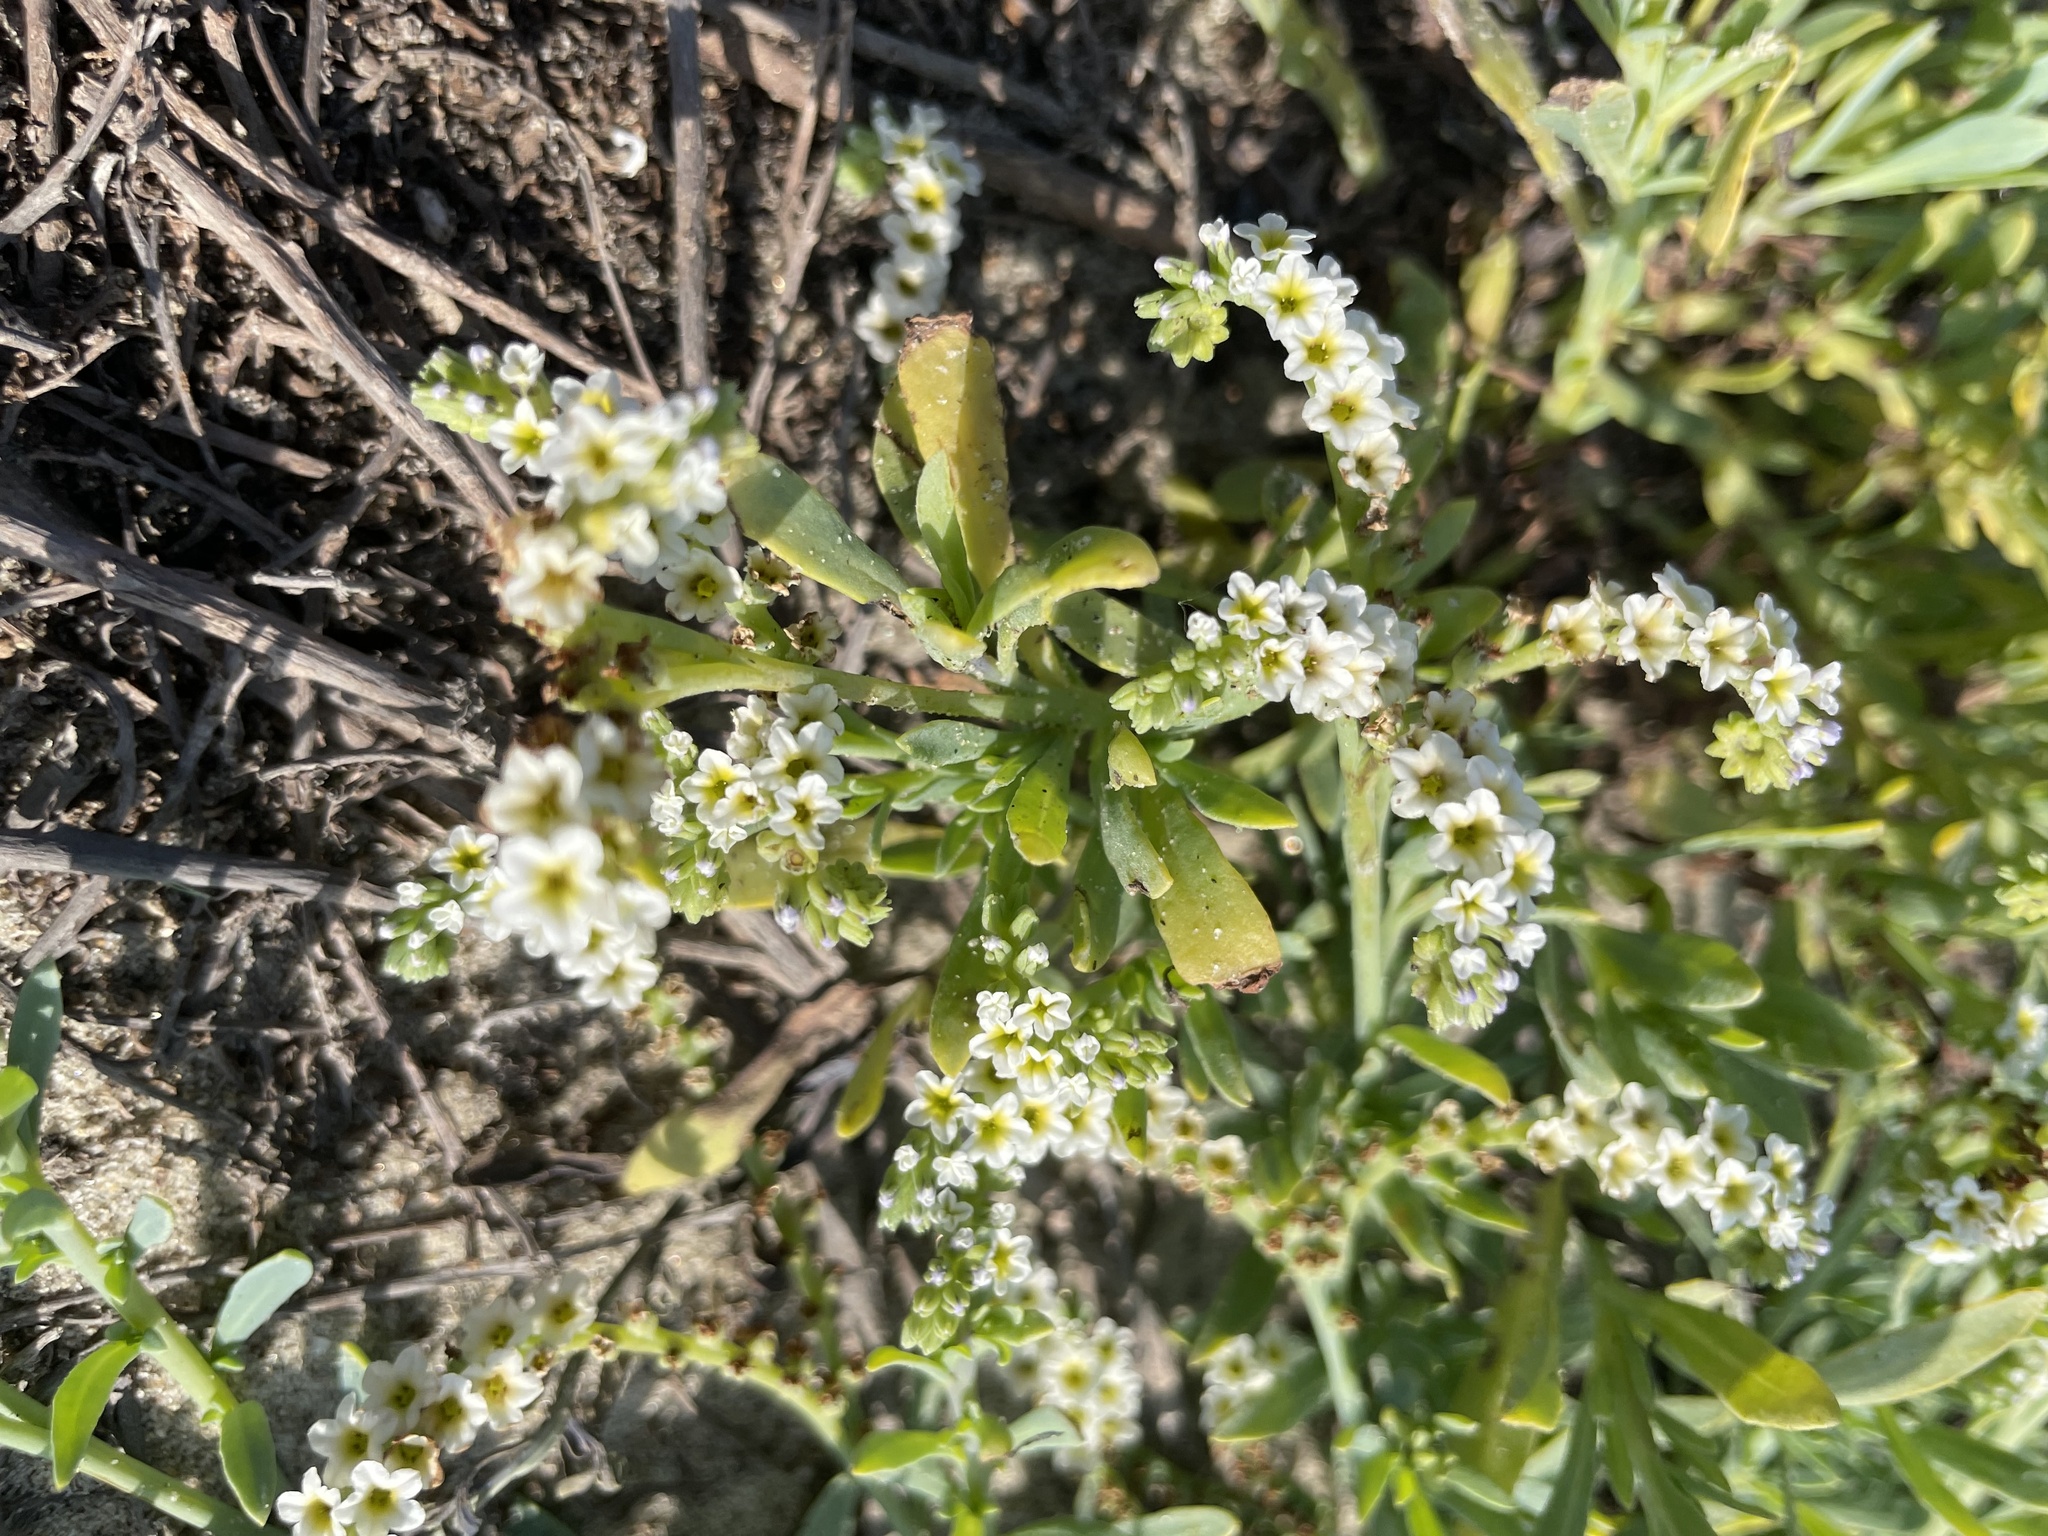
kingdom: Plantae
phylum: Tracheophyta
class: Magnoliopsida
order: Boraginales
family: Heliotropiaceae
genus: Heliotropium
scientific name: Heliotropium curassavicum
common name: Seaside heliotrope
